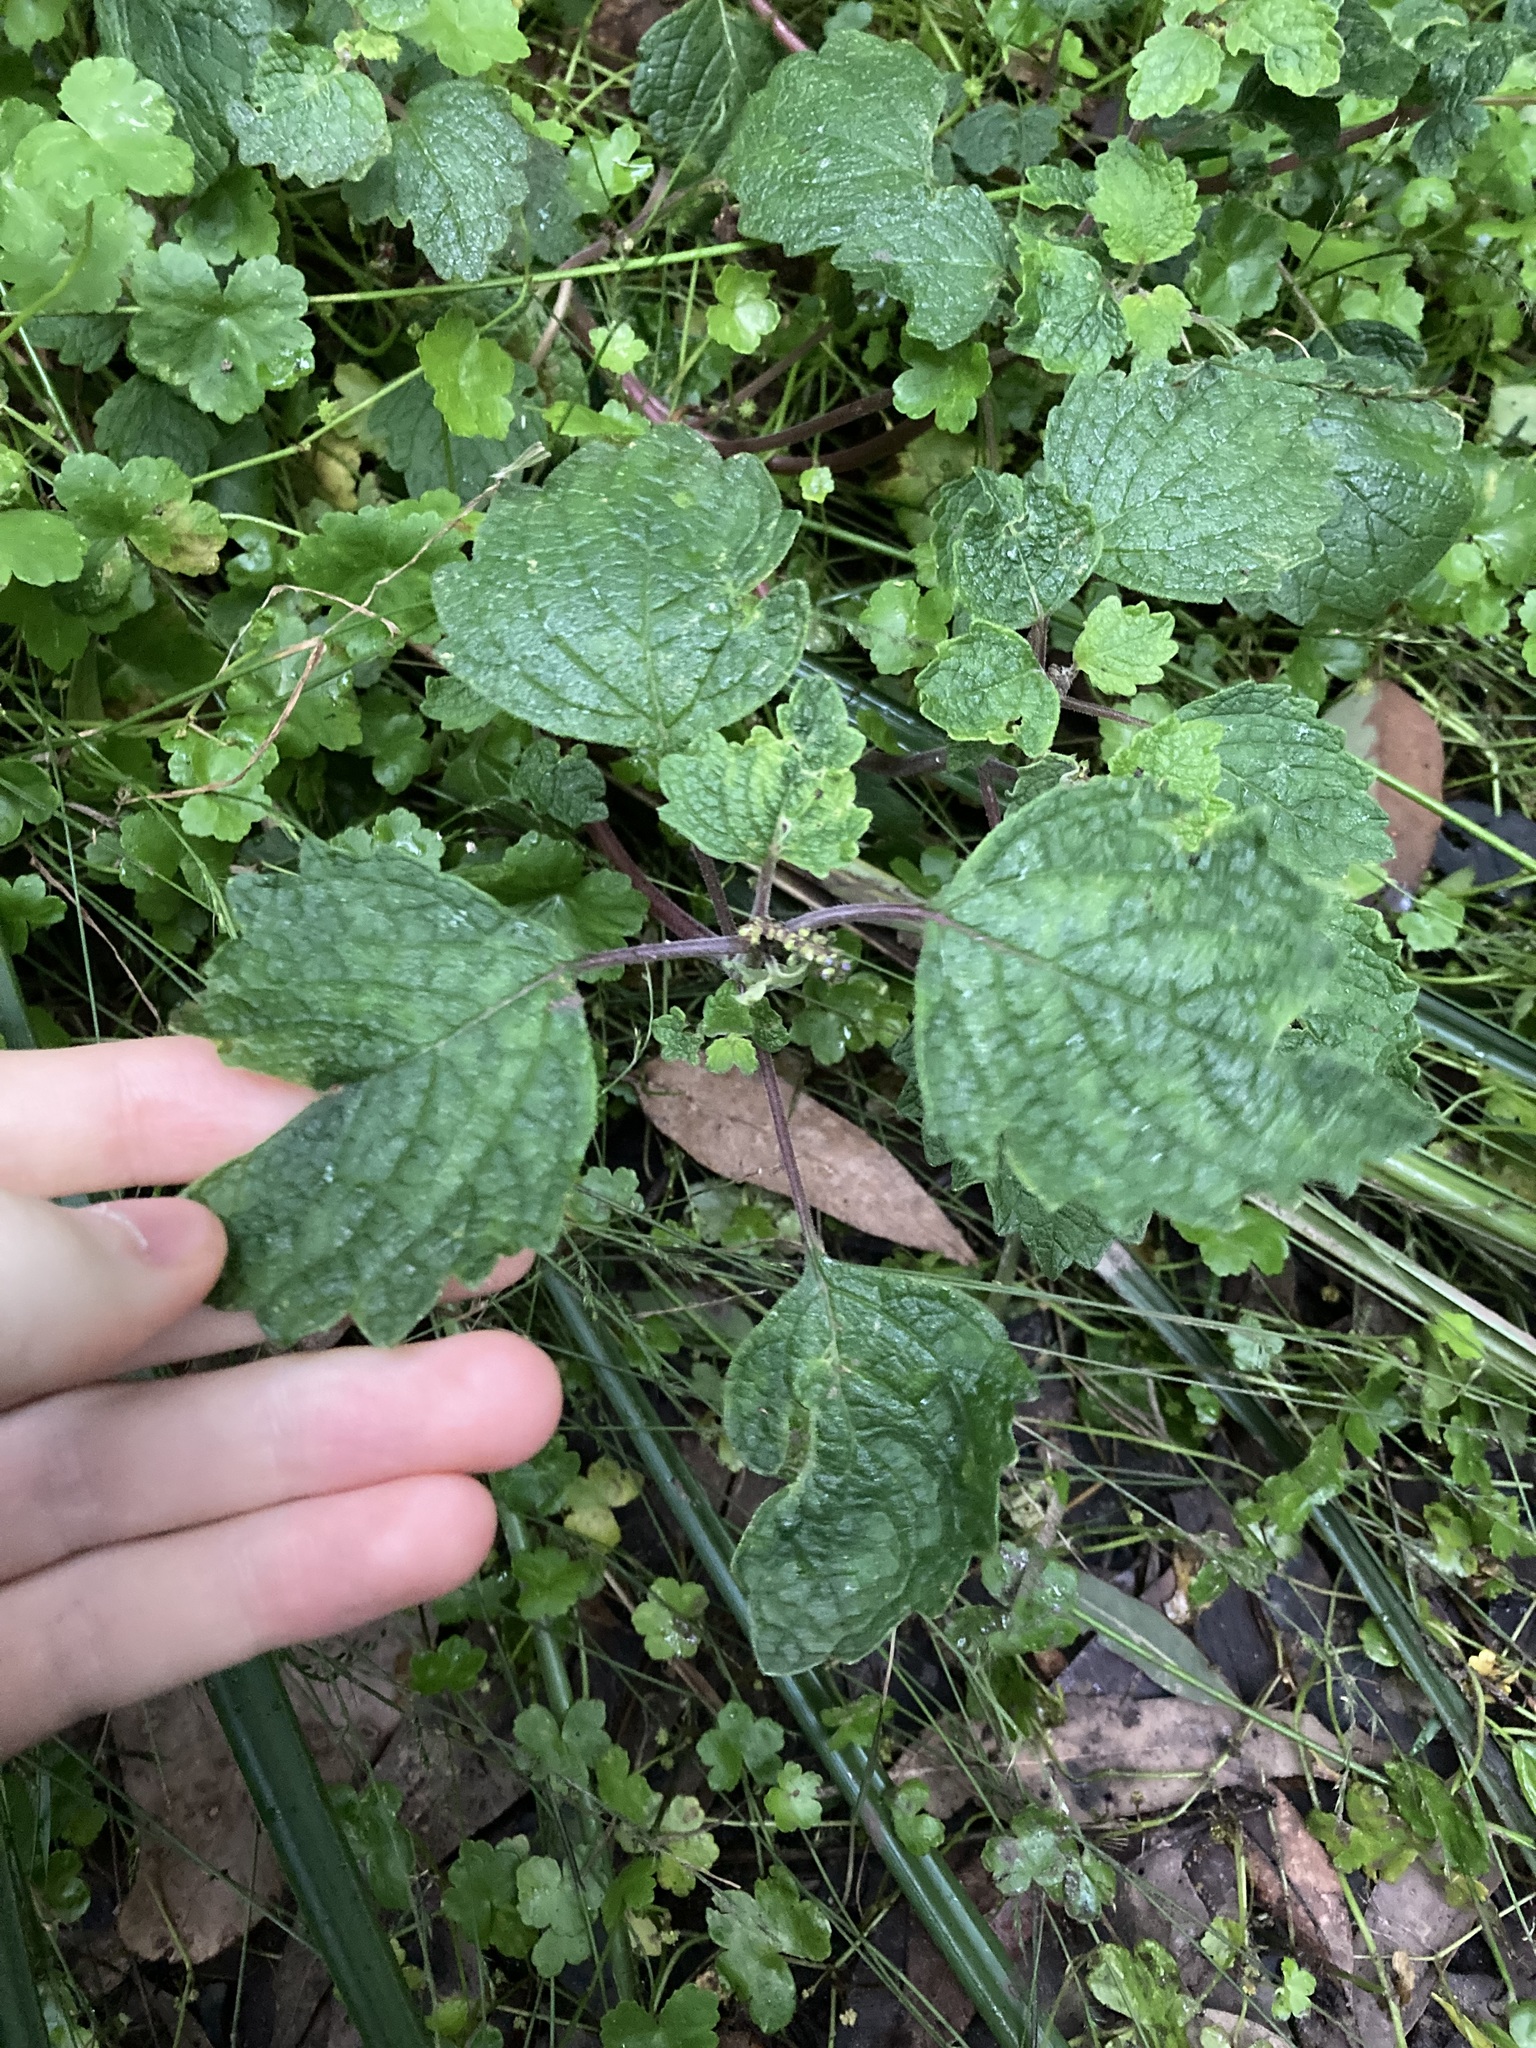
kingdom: Plantae
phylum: Tracheophyta
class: Magnoliopsida
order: Lamiales
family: Lamiaceae
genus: Coleus
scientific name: Coleus australis
